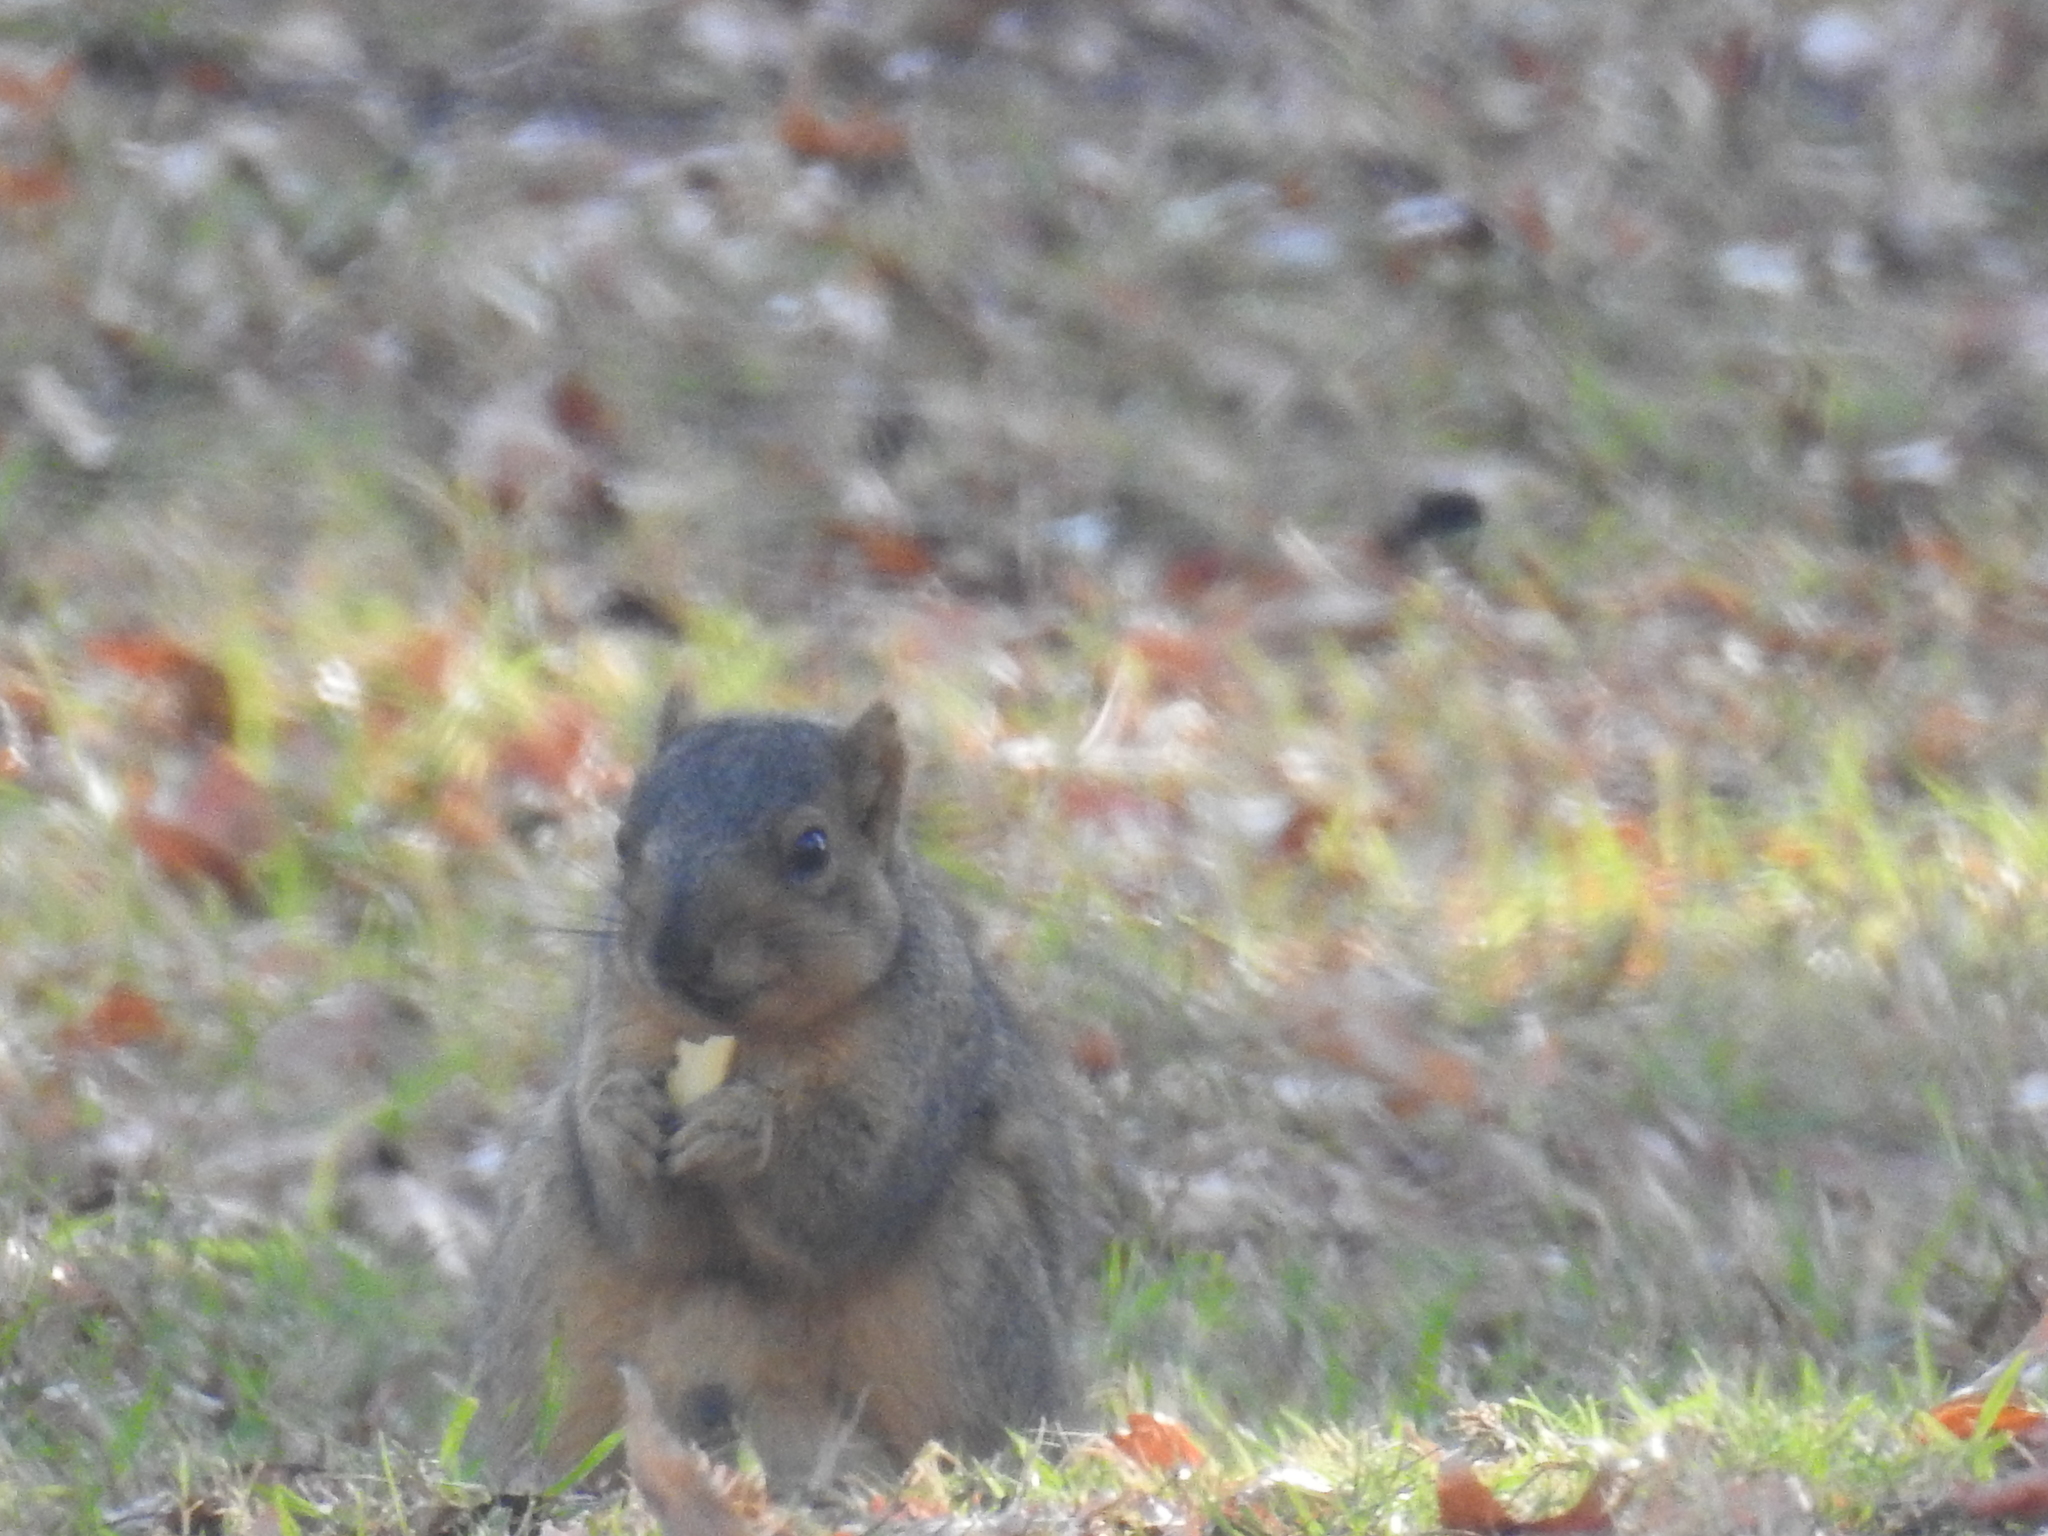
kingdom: Animalia
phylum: Chordata
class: Mammalia
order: Rodentia
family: Sciuridae
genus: Sciurus
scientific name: Sciurus niger
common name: Fox squirrel
